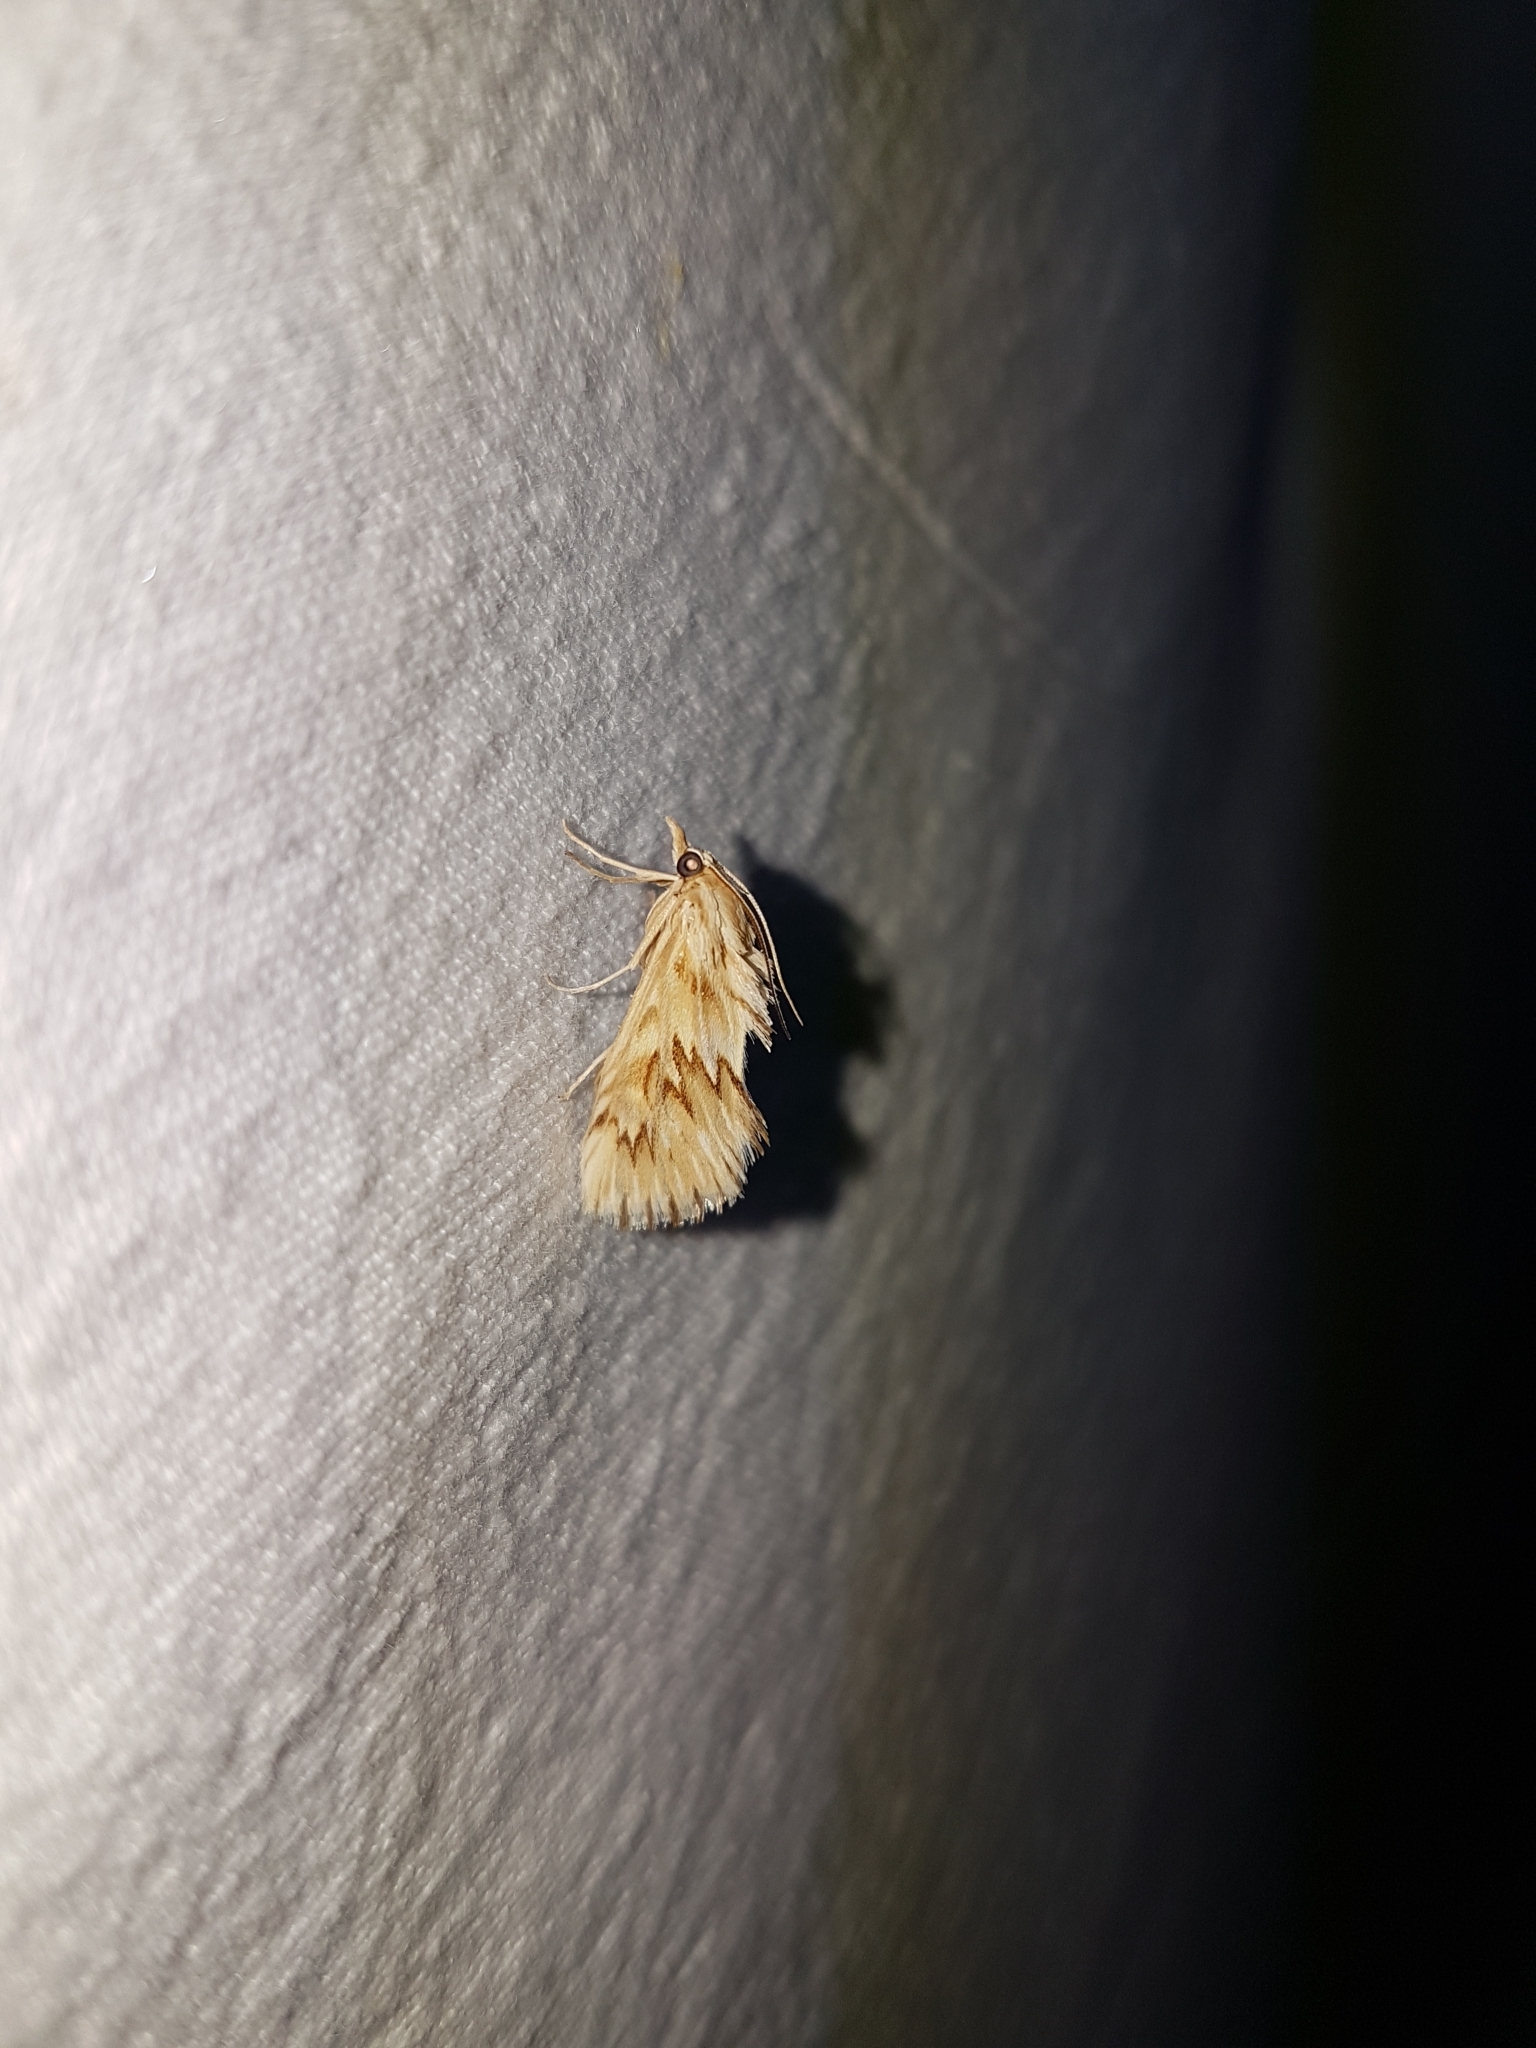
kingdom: Animalia
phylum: Arthropoda
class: Insecta
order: Lepidoptera
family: Crambidae
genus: Cynaeda
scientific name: Cynaeda dentalis
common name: Starry pearl
